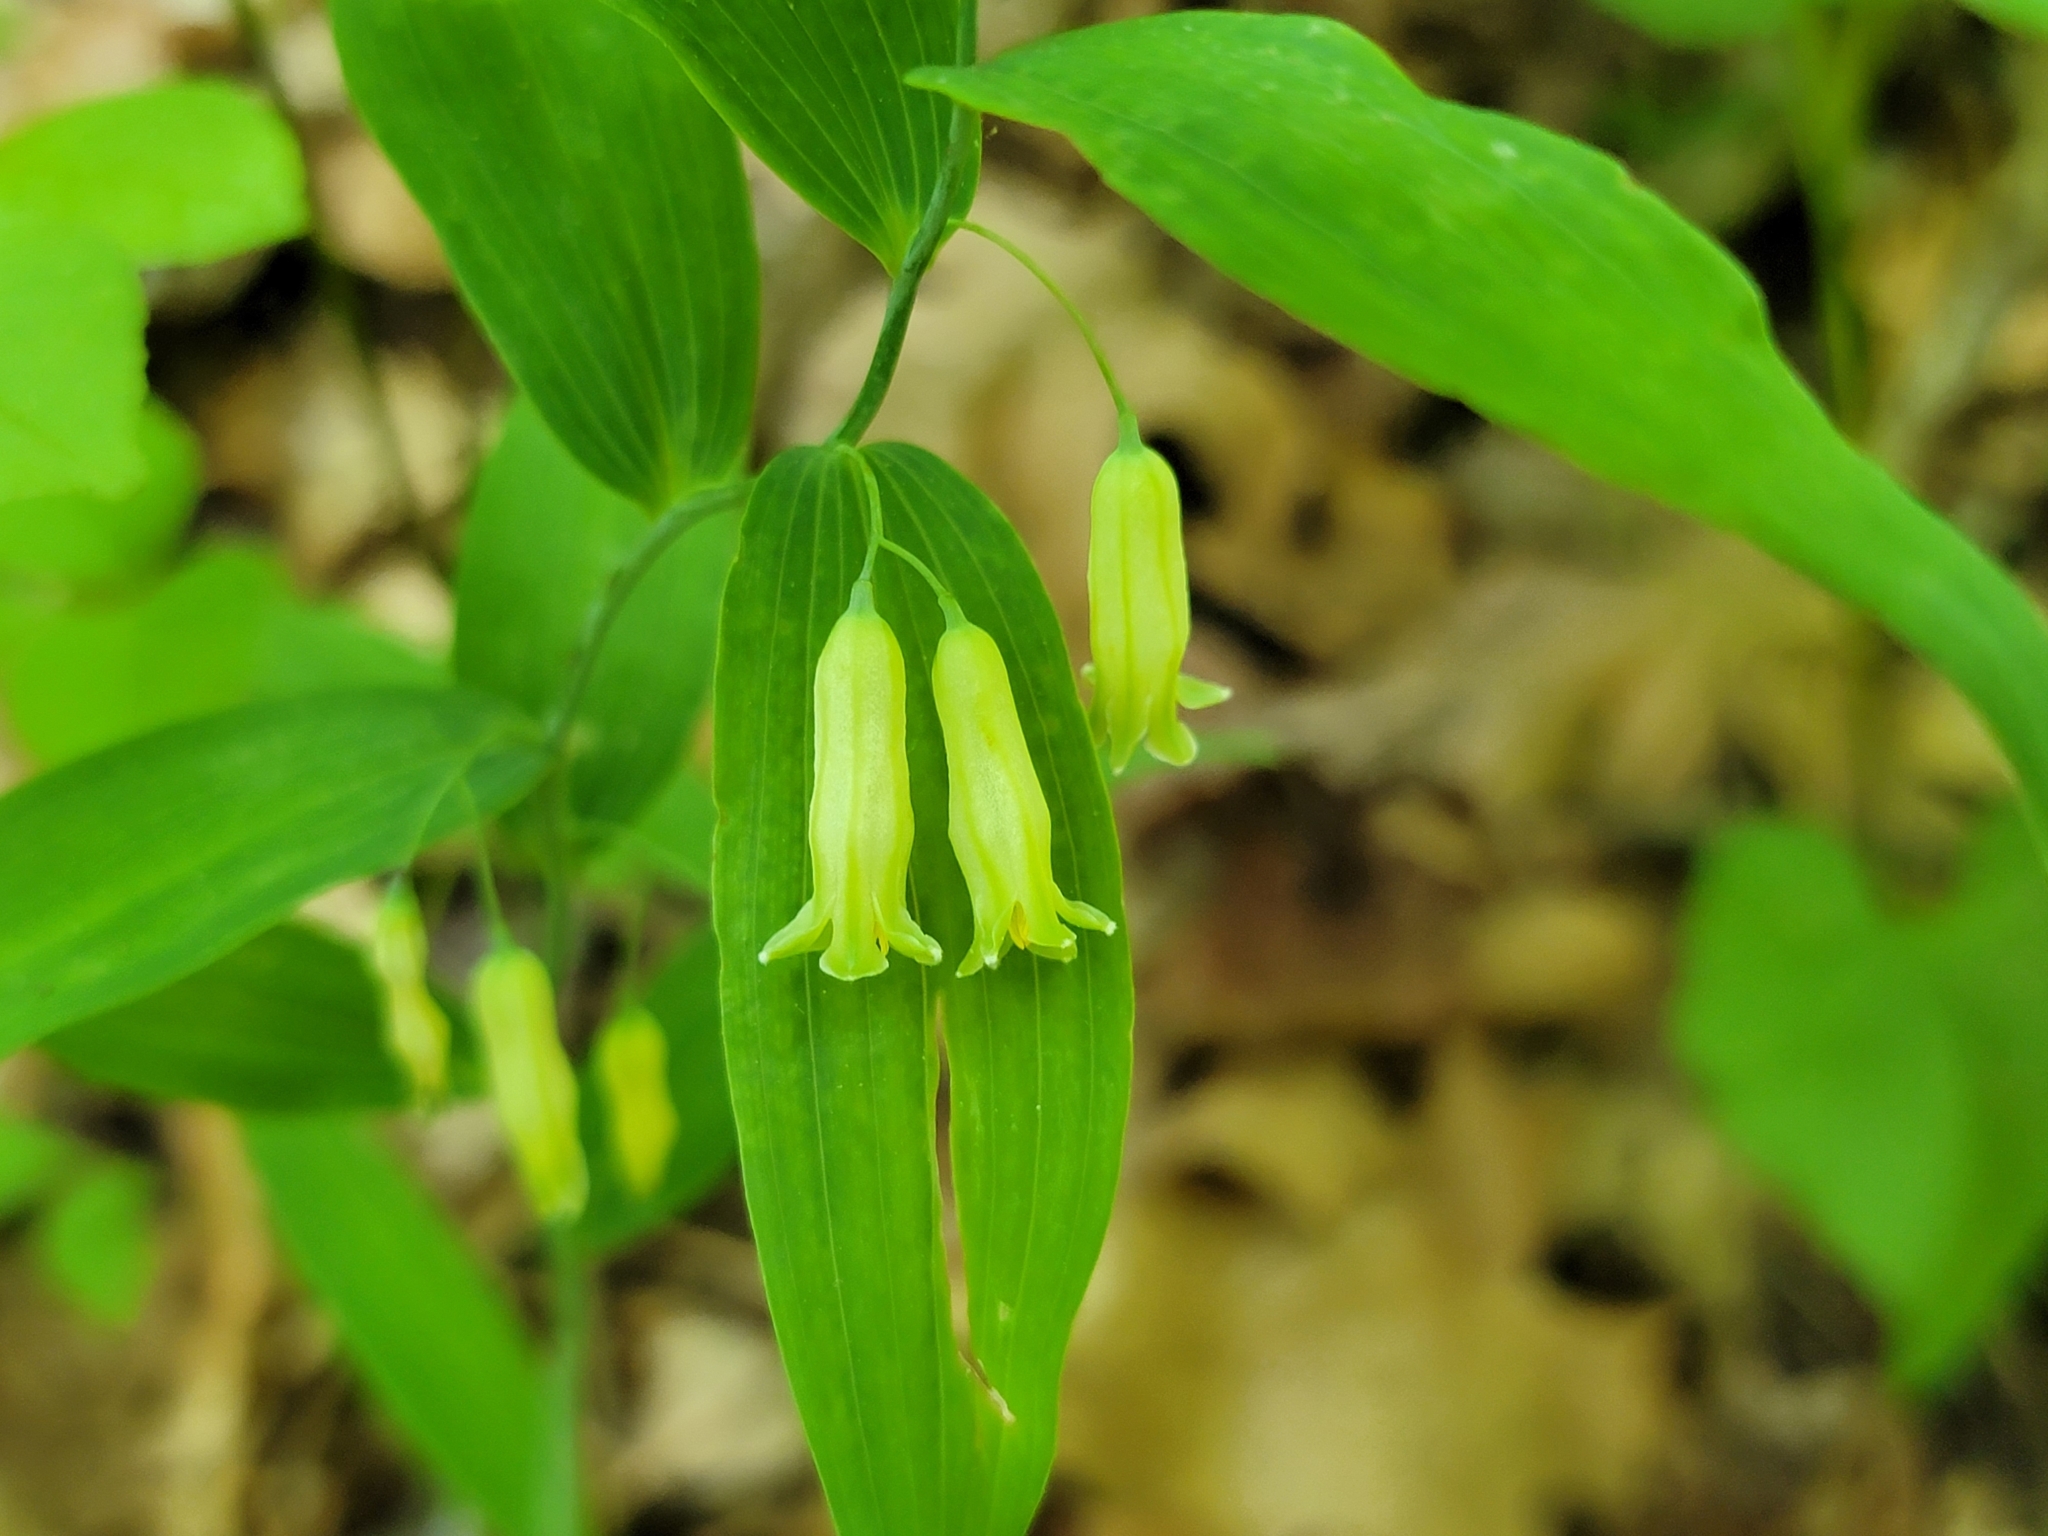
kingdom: Plantae
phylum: Tracheophyta
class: Liliopsida
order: Asparagales
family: Asparagaceae
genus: Polygonatum
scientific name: Polygonatum biflorum
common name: American solomon's-seal
